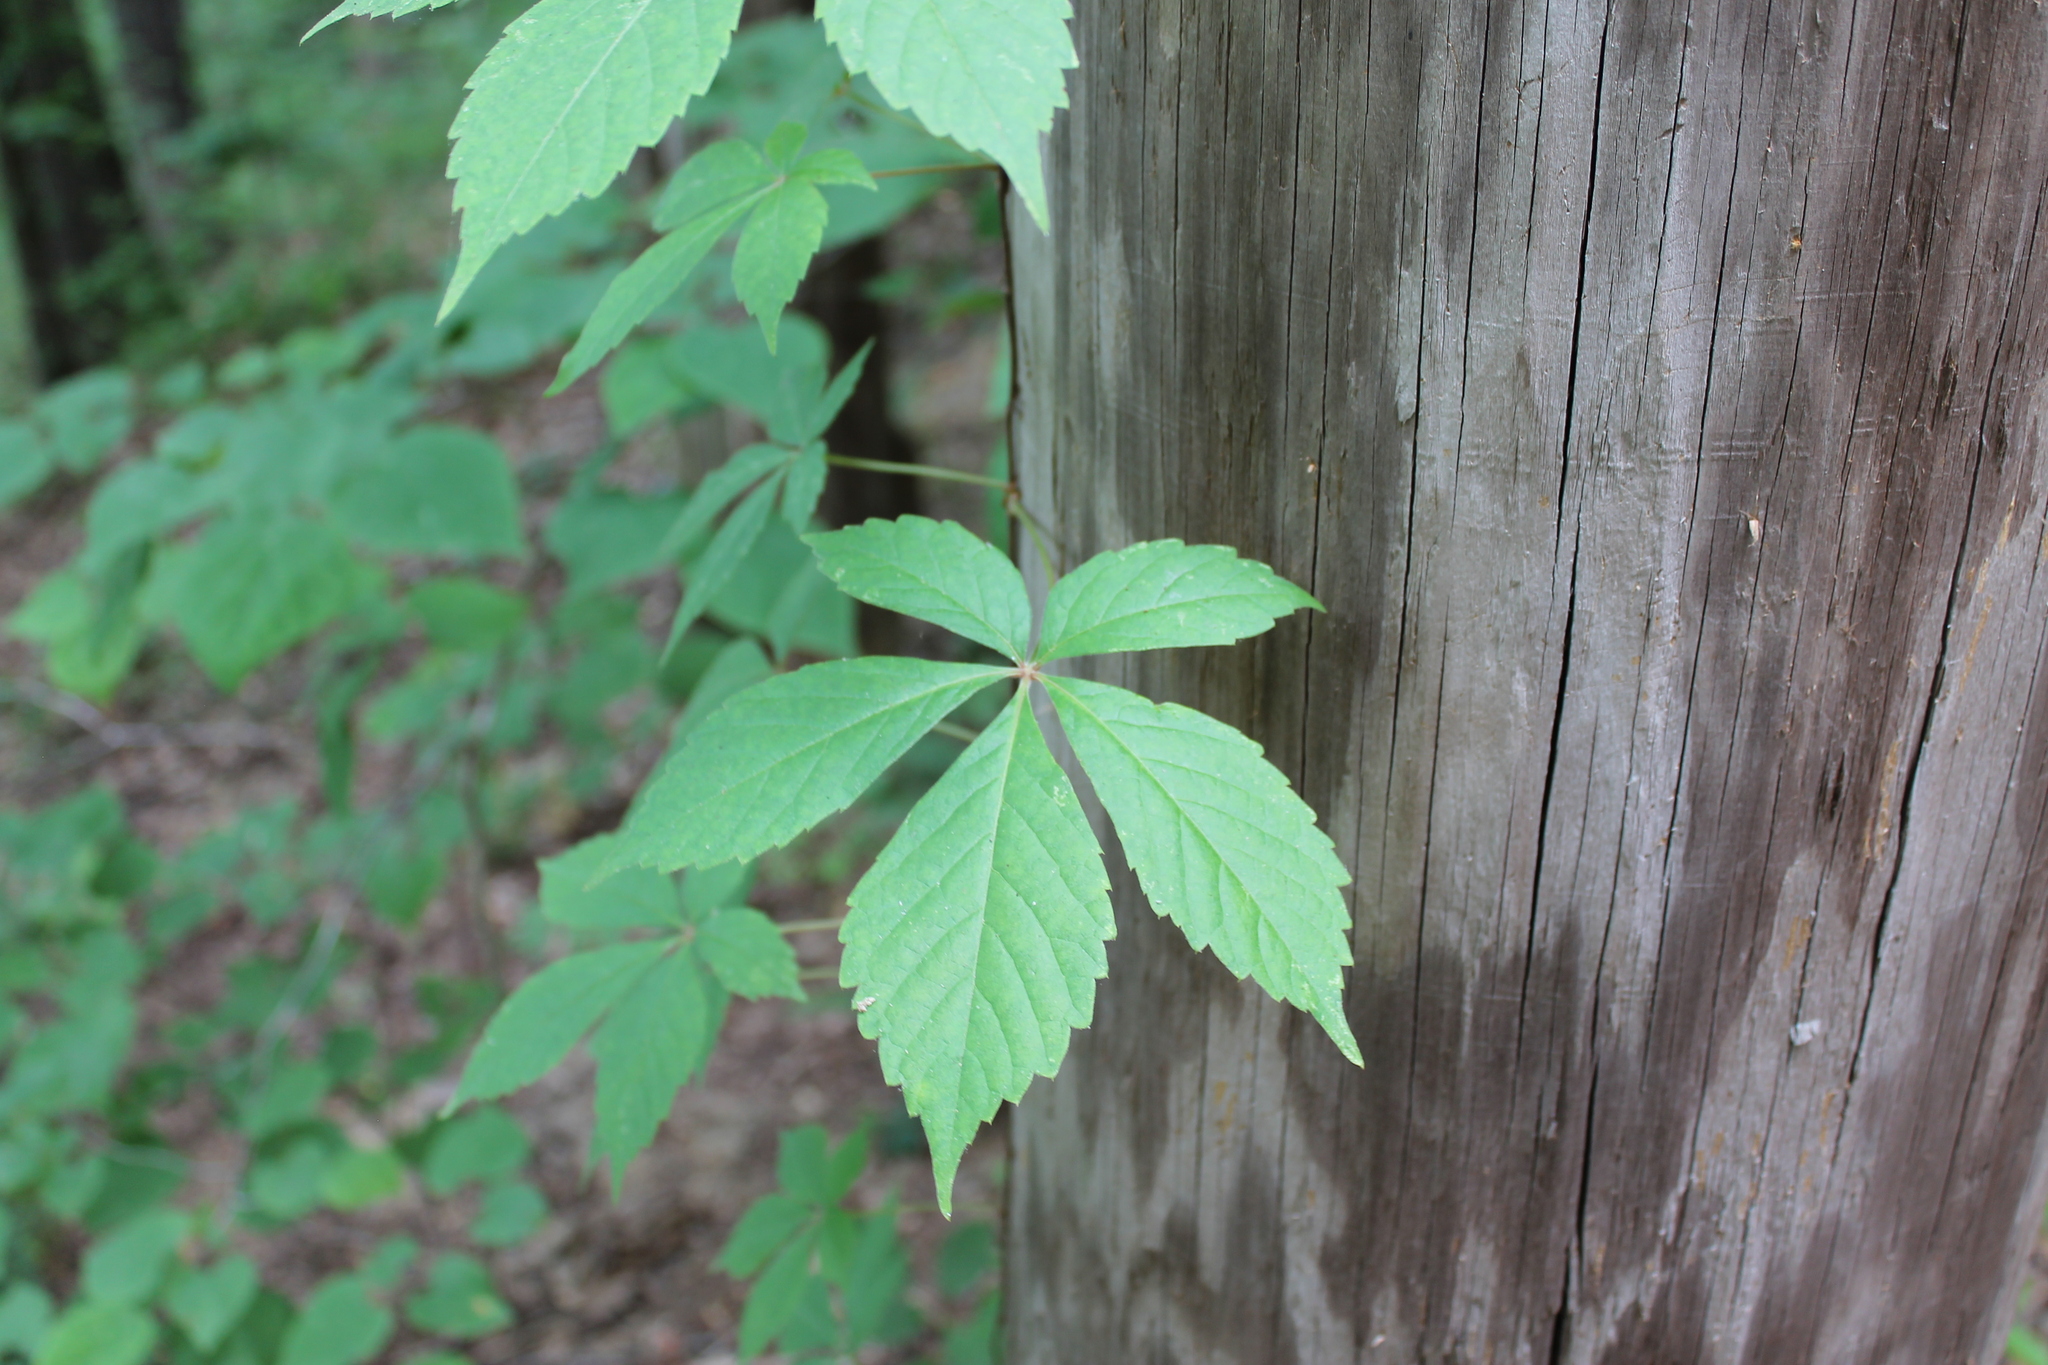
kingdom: Plantae
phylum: Tracheophyta
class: Magnoliopsida
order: Vitales
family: Vitaceae
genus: Parthenocissus
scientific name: Parthenocissus quinquefolia
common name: Virginia-creeper
